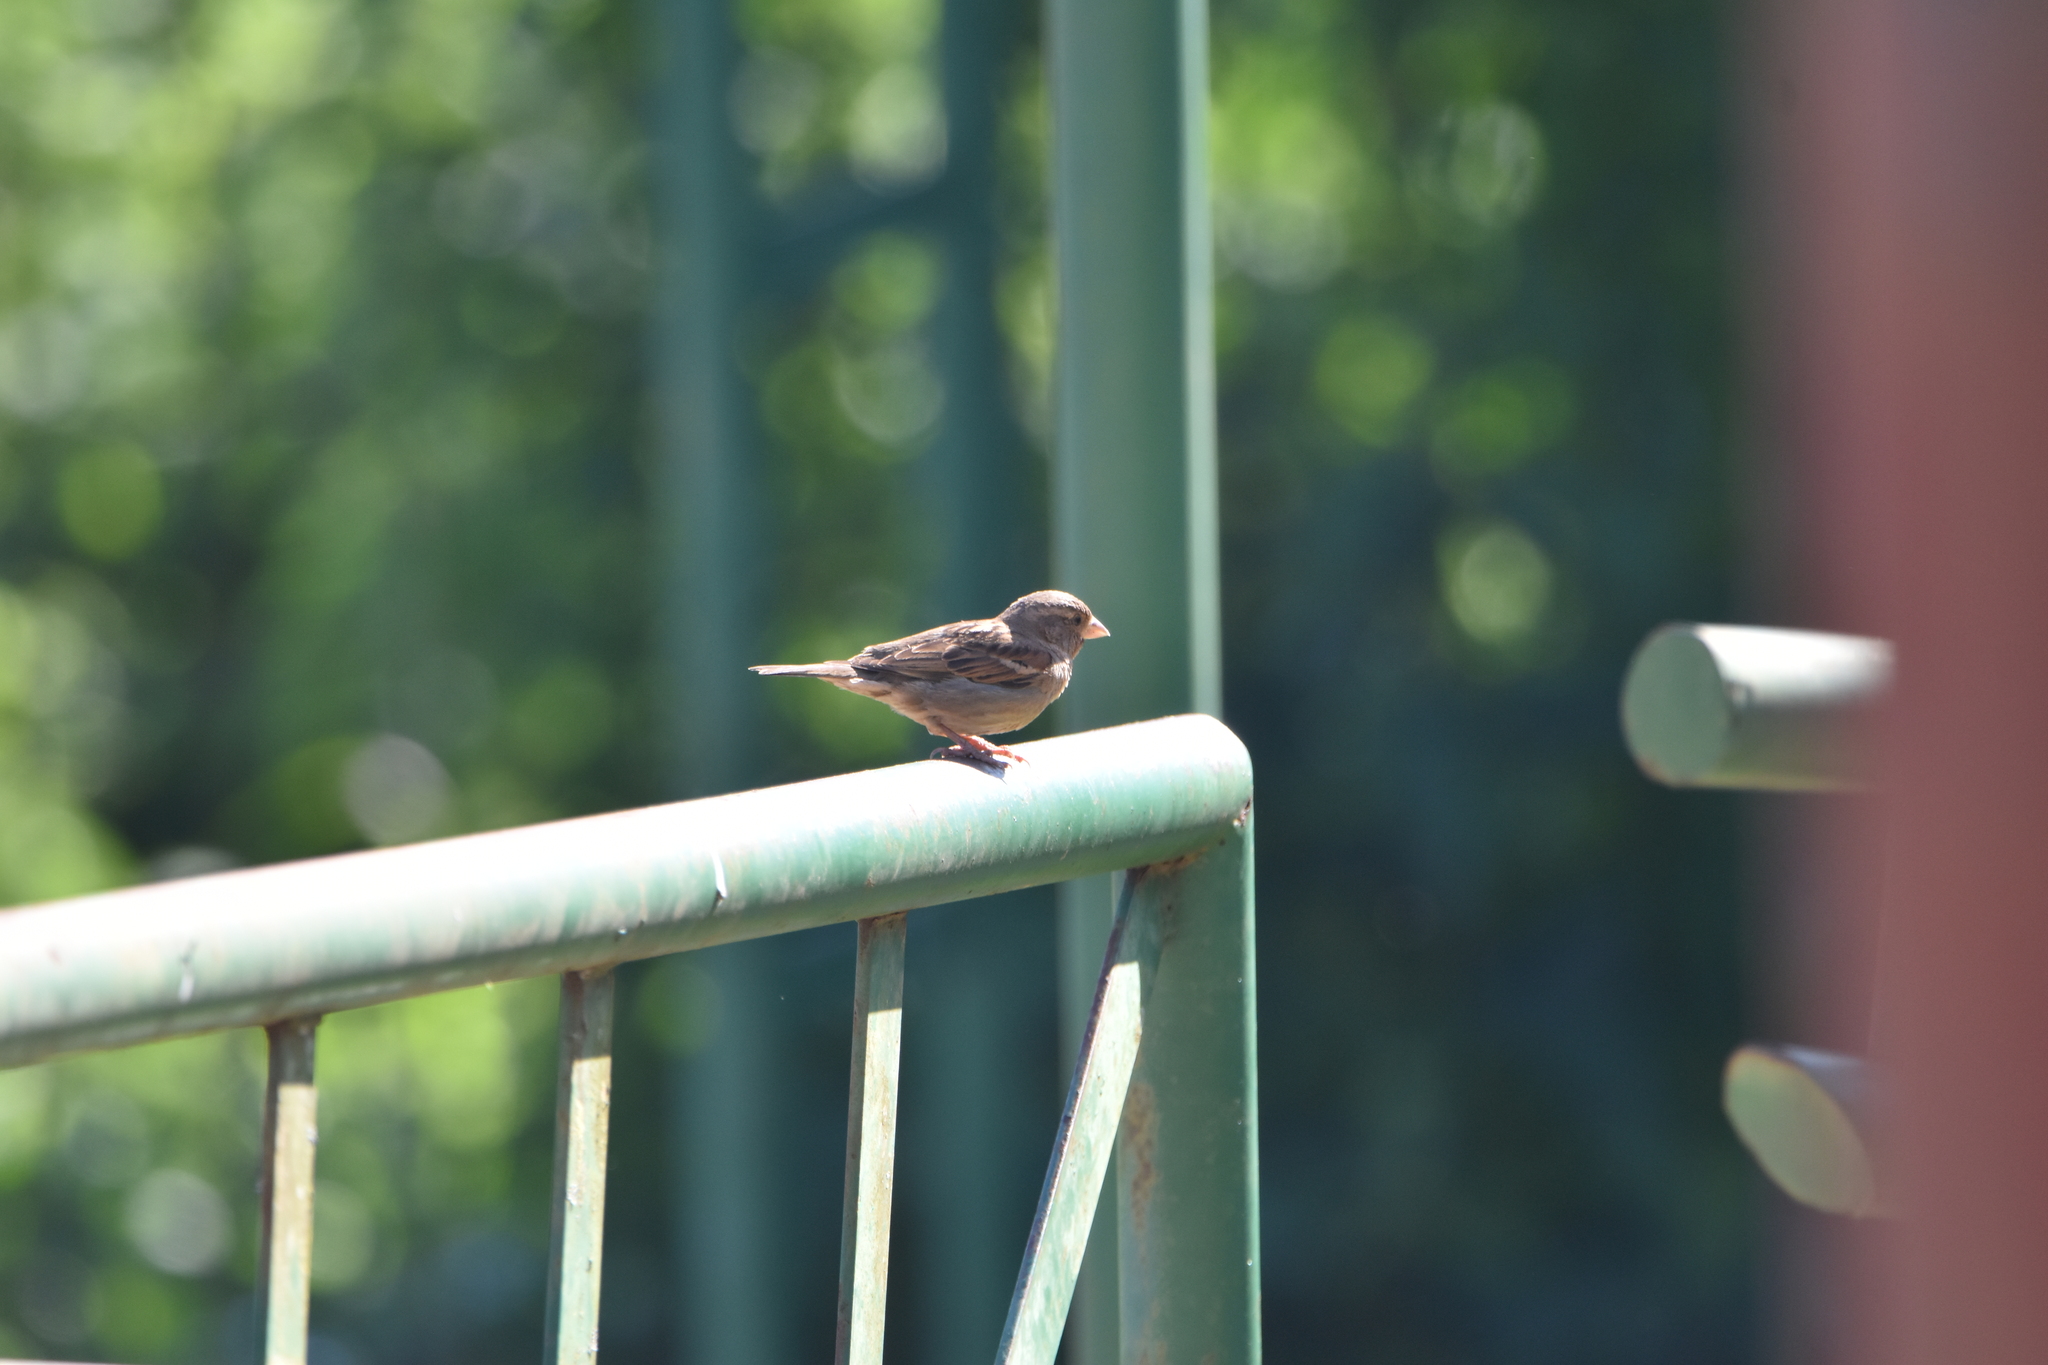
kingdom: Animalia
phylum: Chordata
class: Aves
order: Passeriformes
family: Passeridae
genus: Passer
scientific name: Passer domesticus
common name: House sparrow
